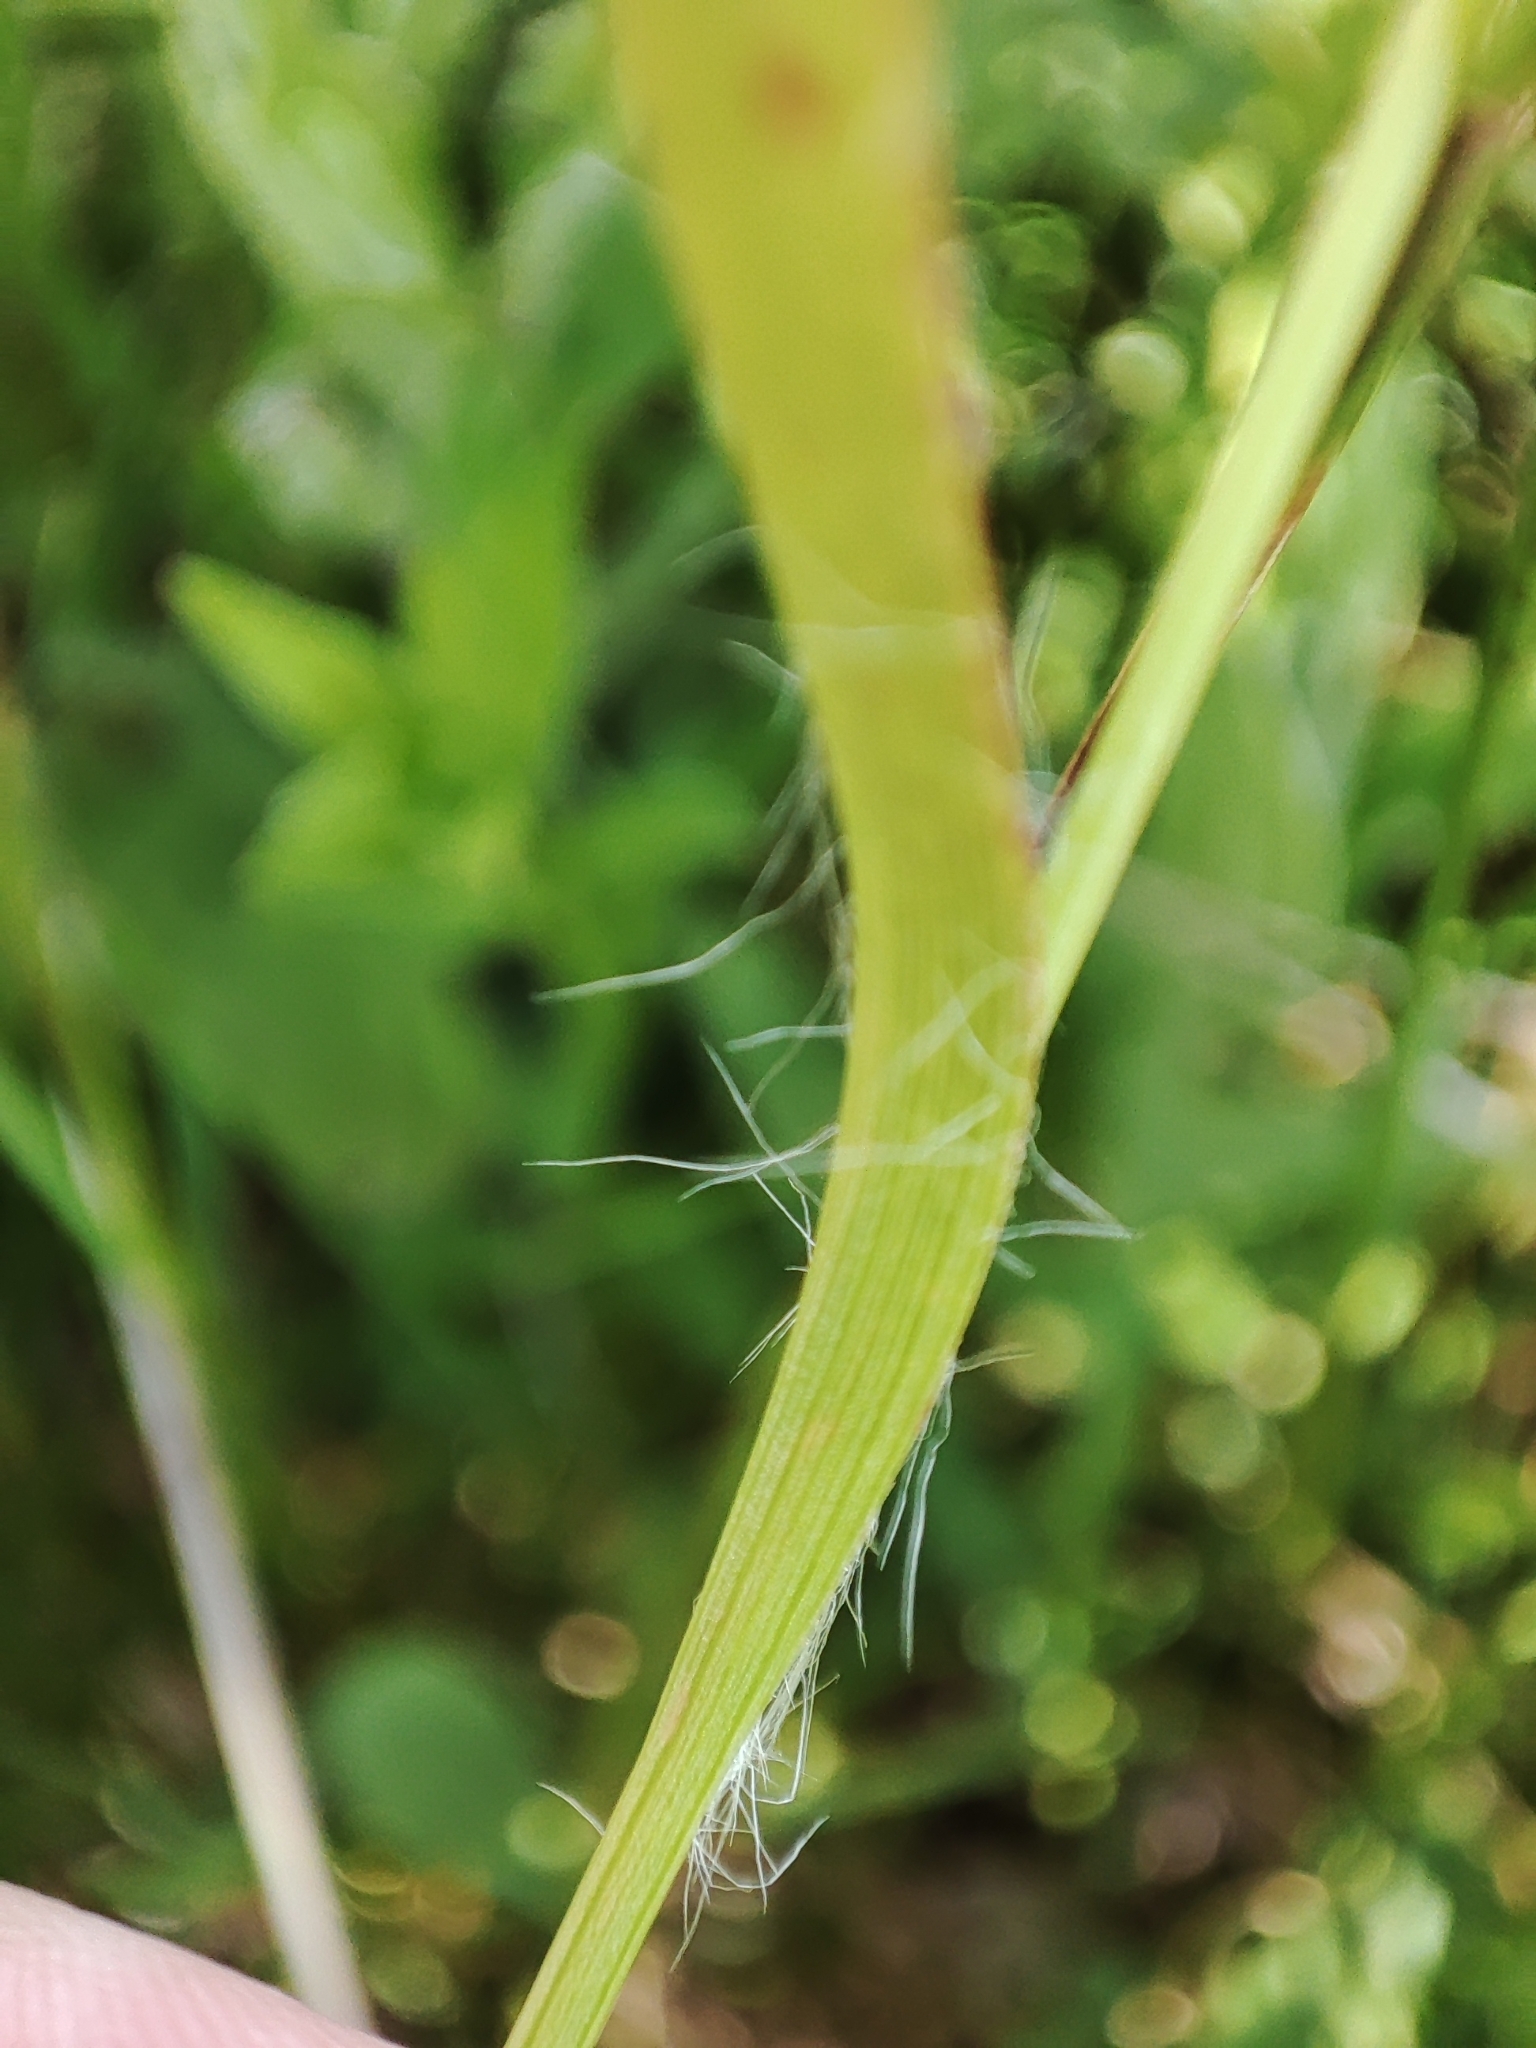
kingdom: Plantae
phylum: Tracheophyta
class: Liliopsida
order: Poales
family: Juncaceae
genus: Luzula
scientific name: Luzula sudetica
